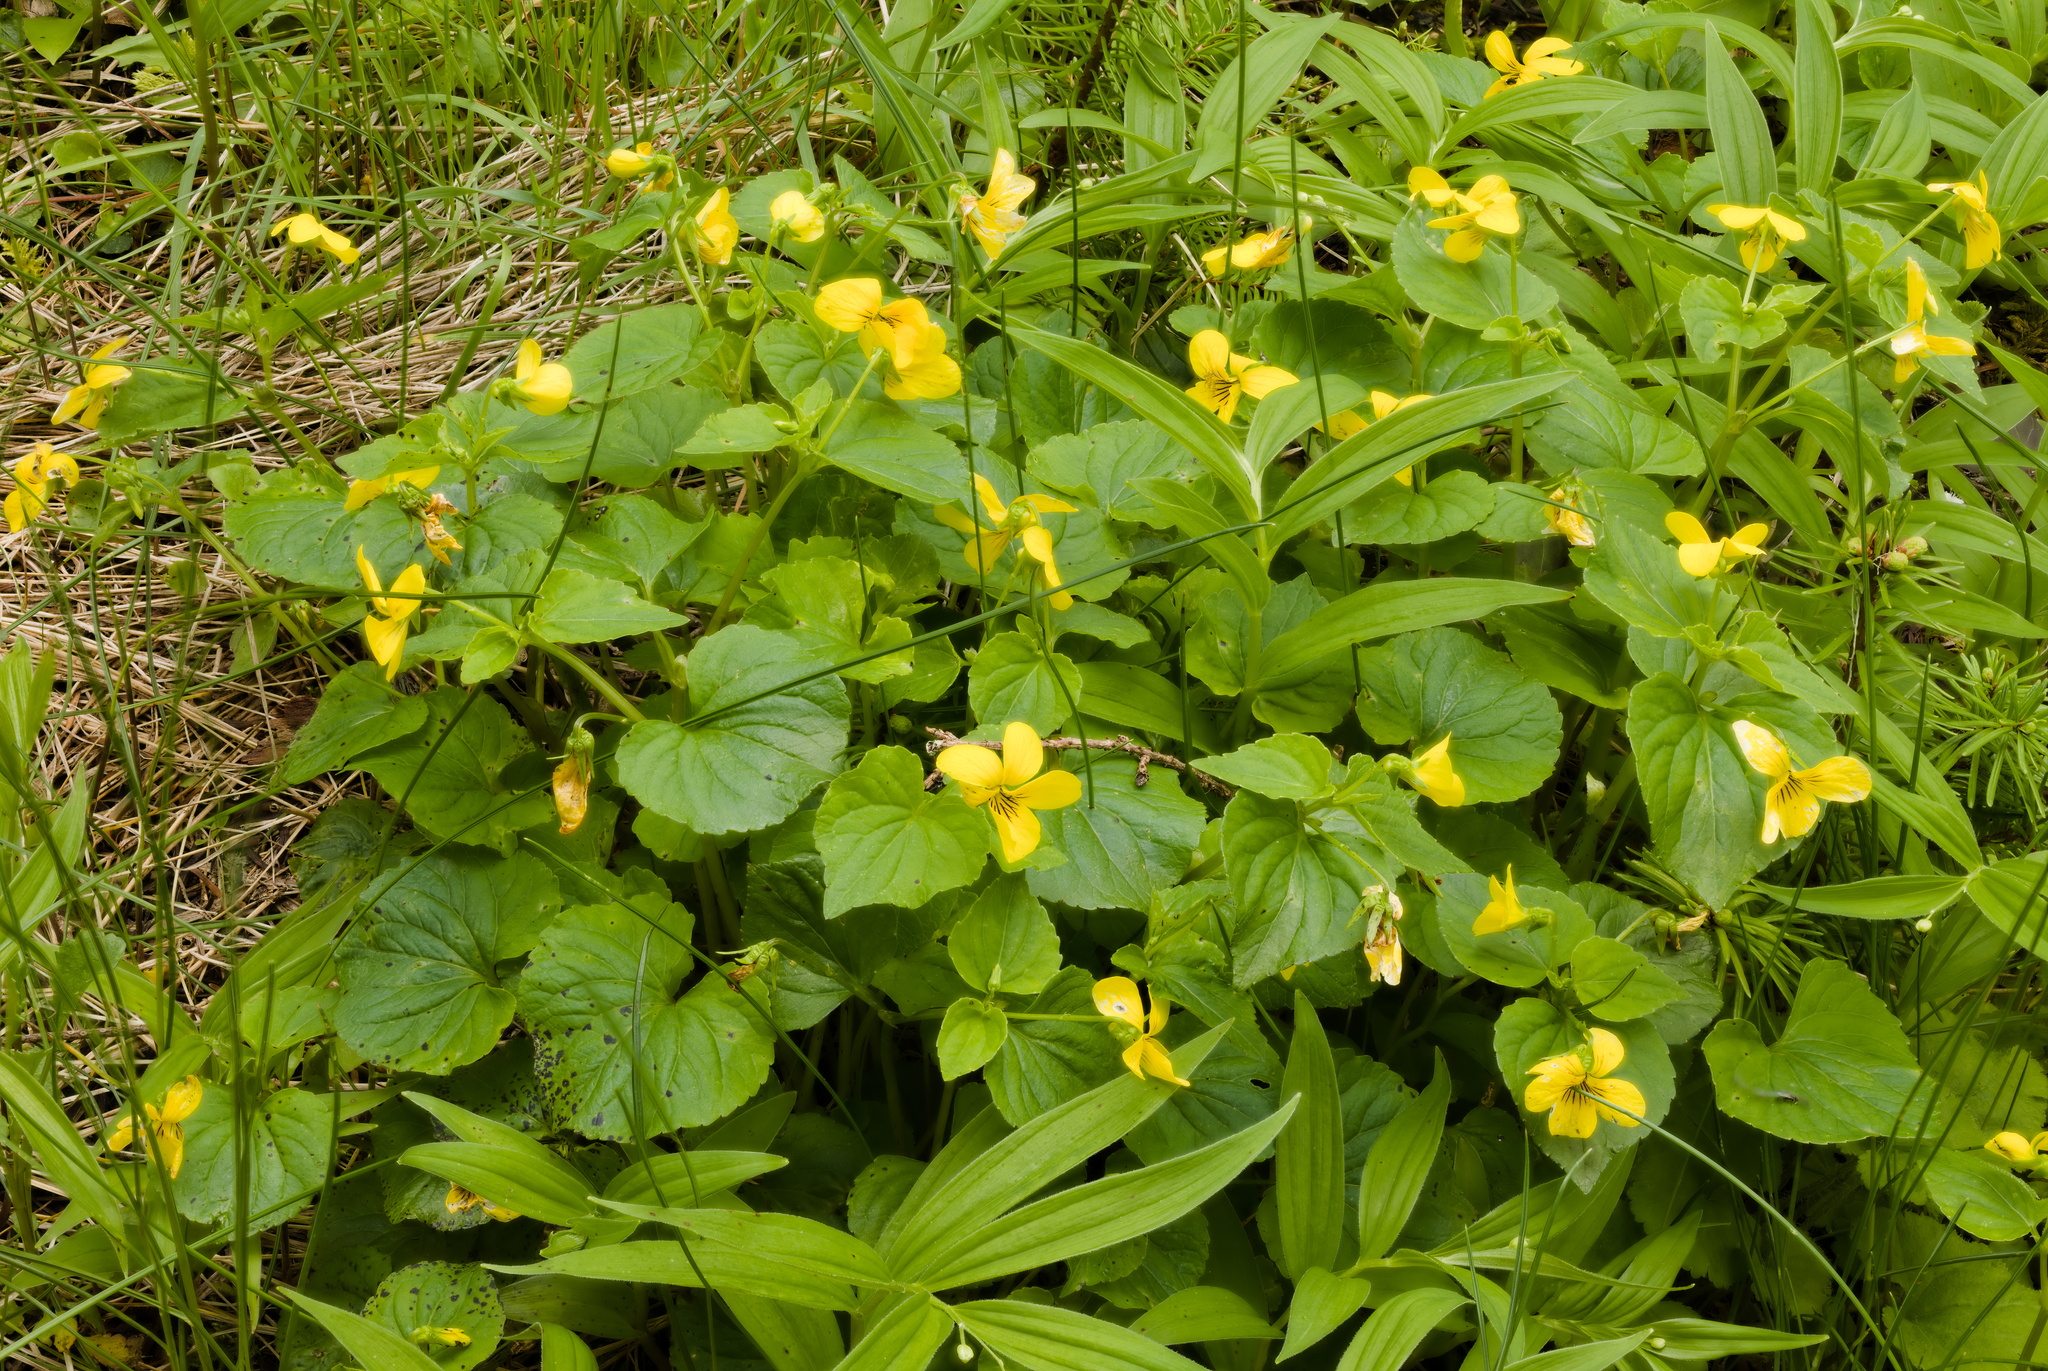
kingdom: Plantae
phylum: Tracheophyta
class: Magnoliopsida
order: Malpighiales
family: Violaceae
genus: Viola
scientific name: Viola glabella
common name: Stream violet
